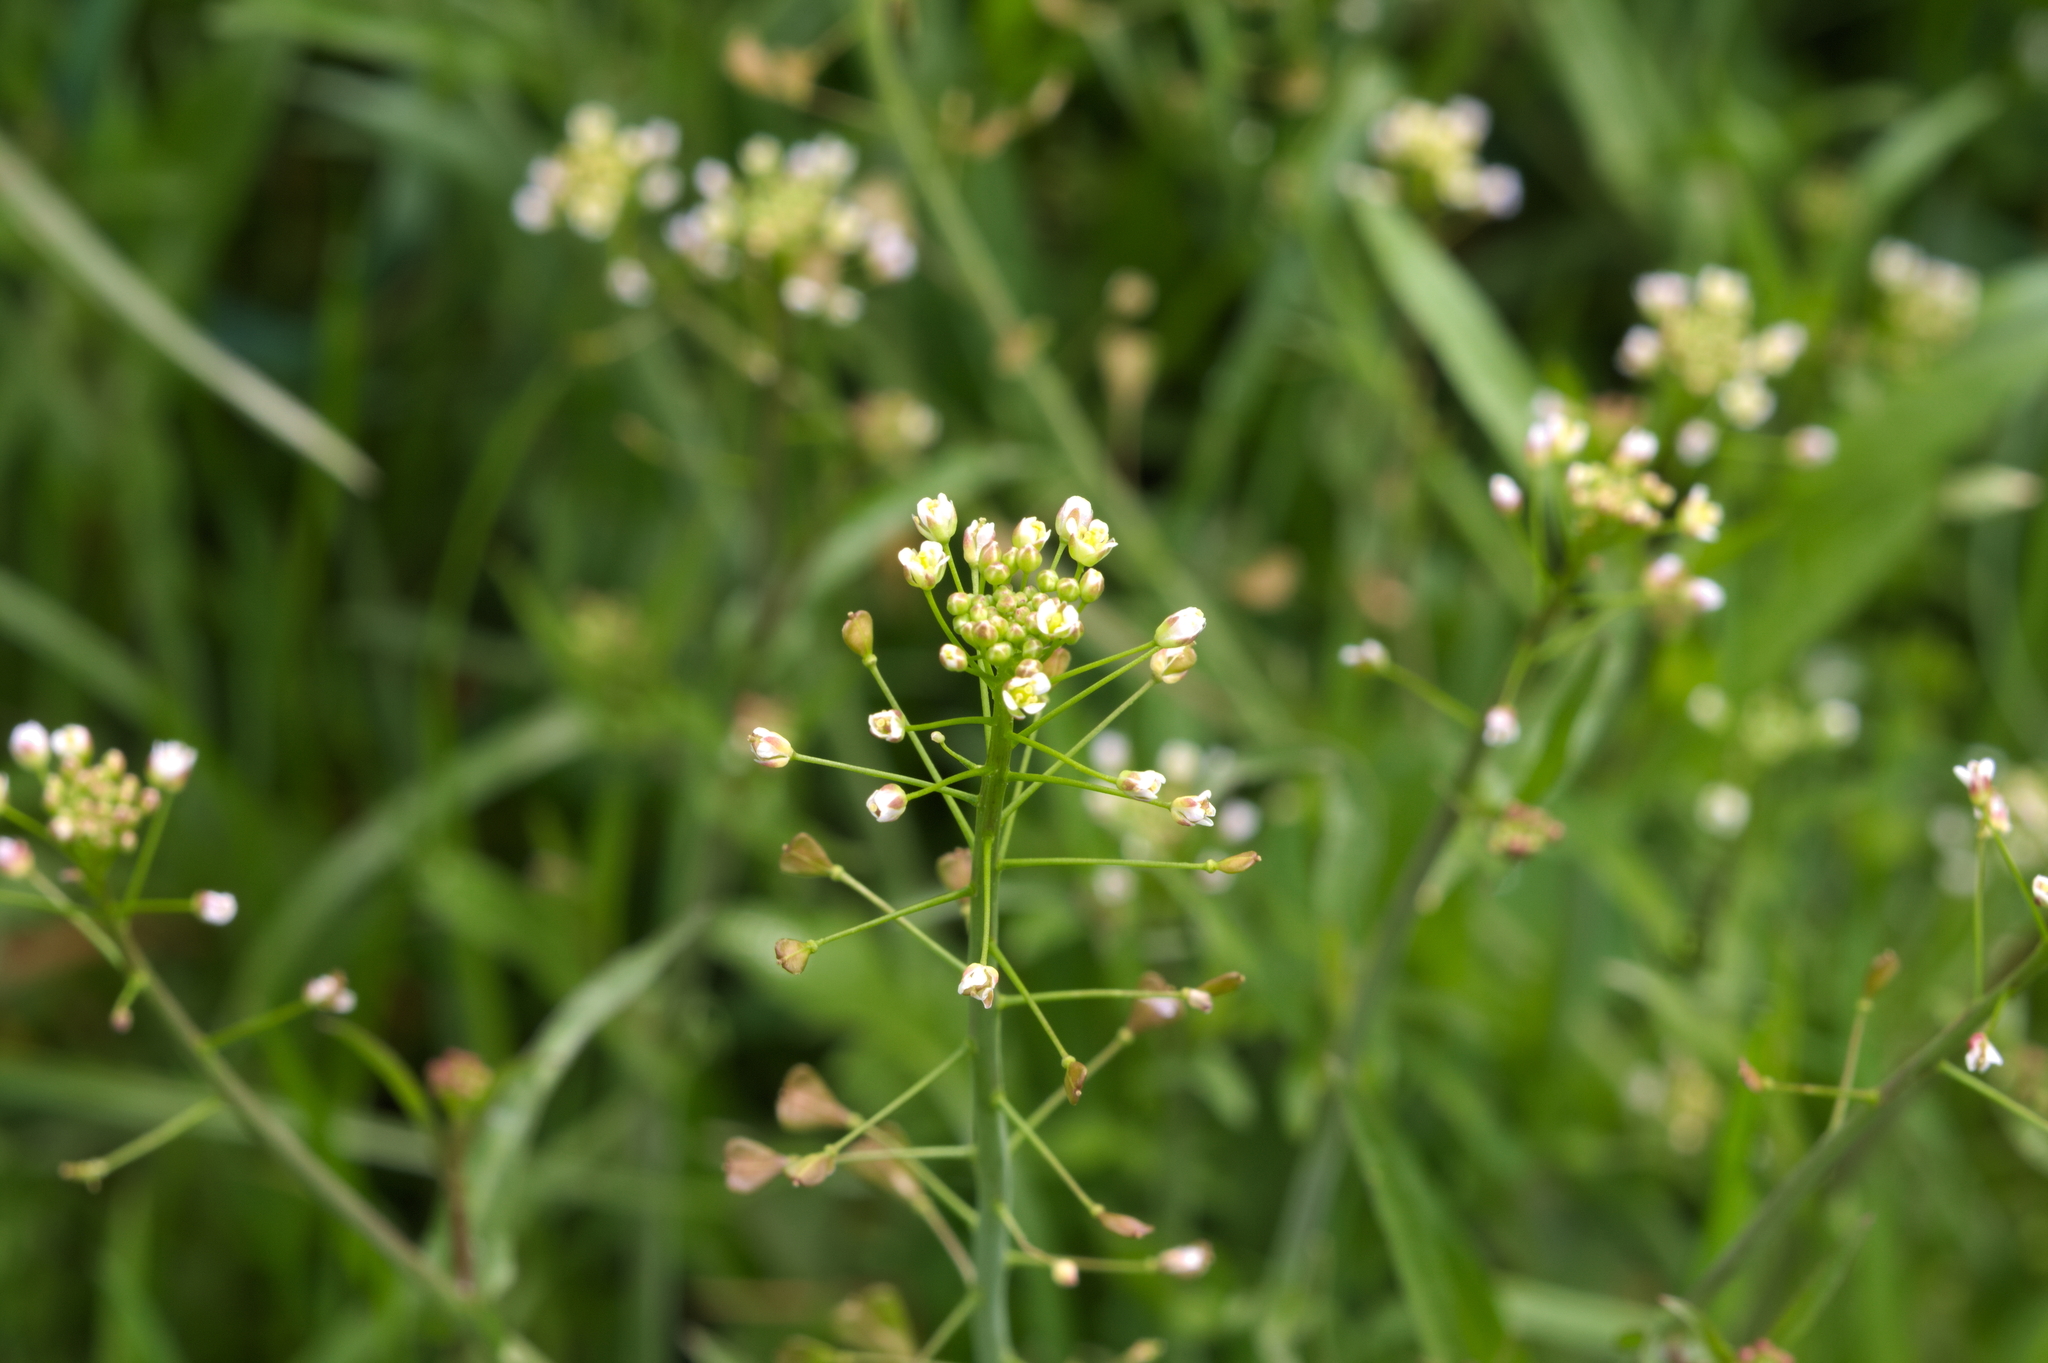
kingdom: Plantae
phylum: Tracheophyta
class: Magnoliopsida
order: Brassicales
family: Brassicaceae
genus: Capsella
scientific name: Capsella bursa-pastoris
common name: Shepherd's purse
